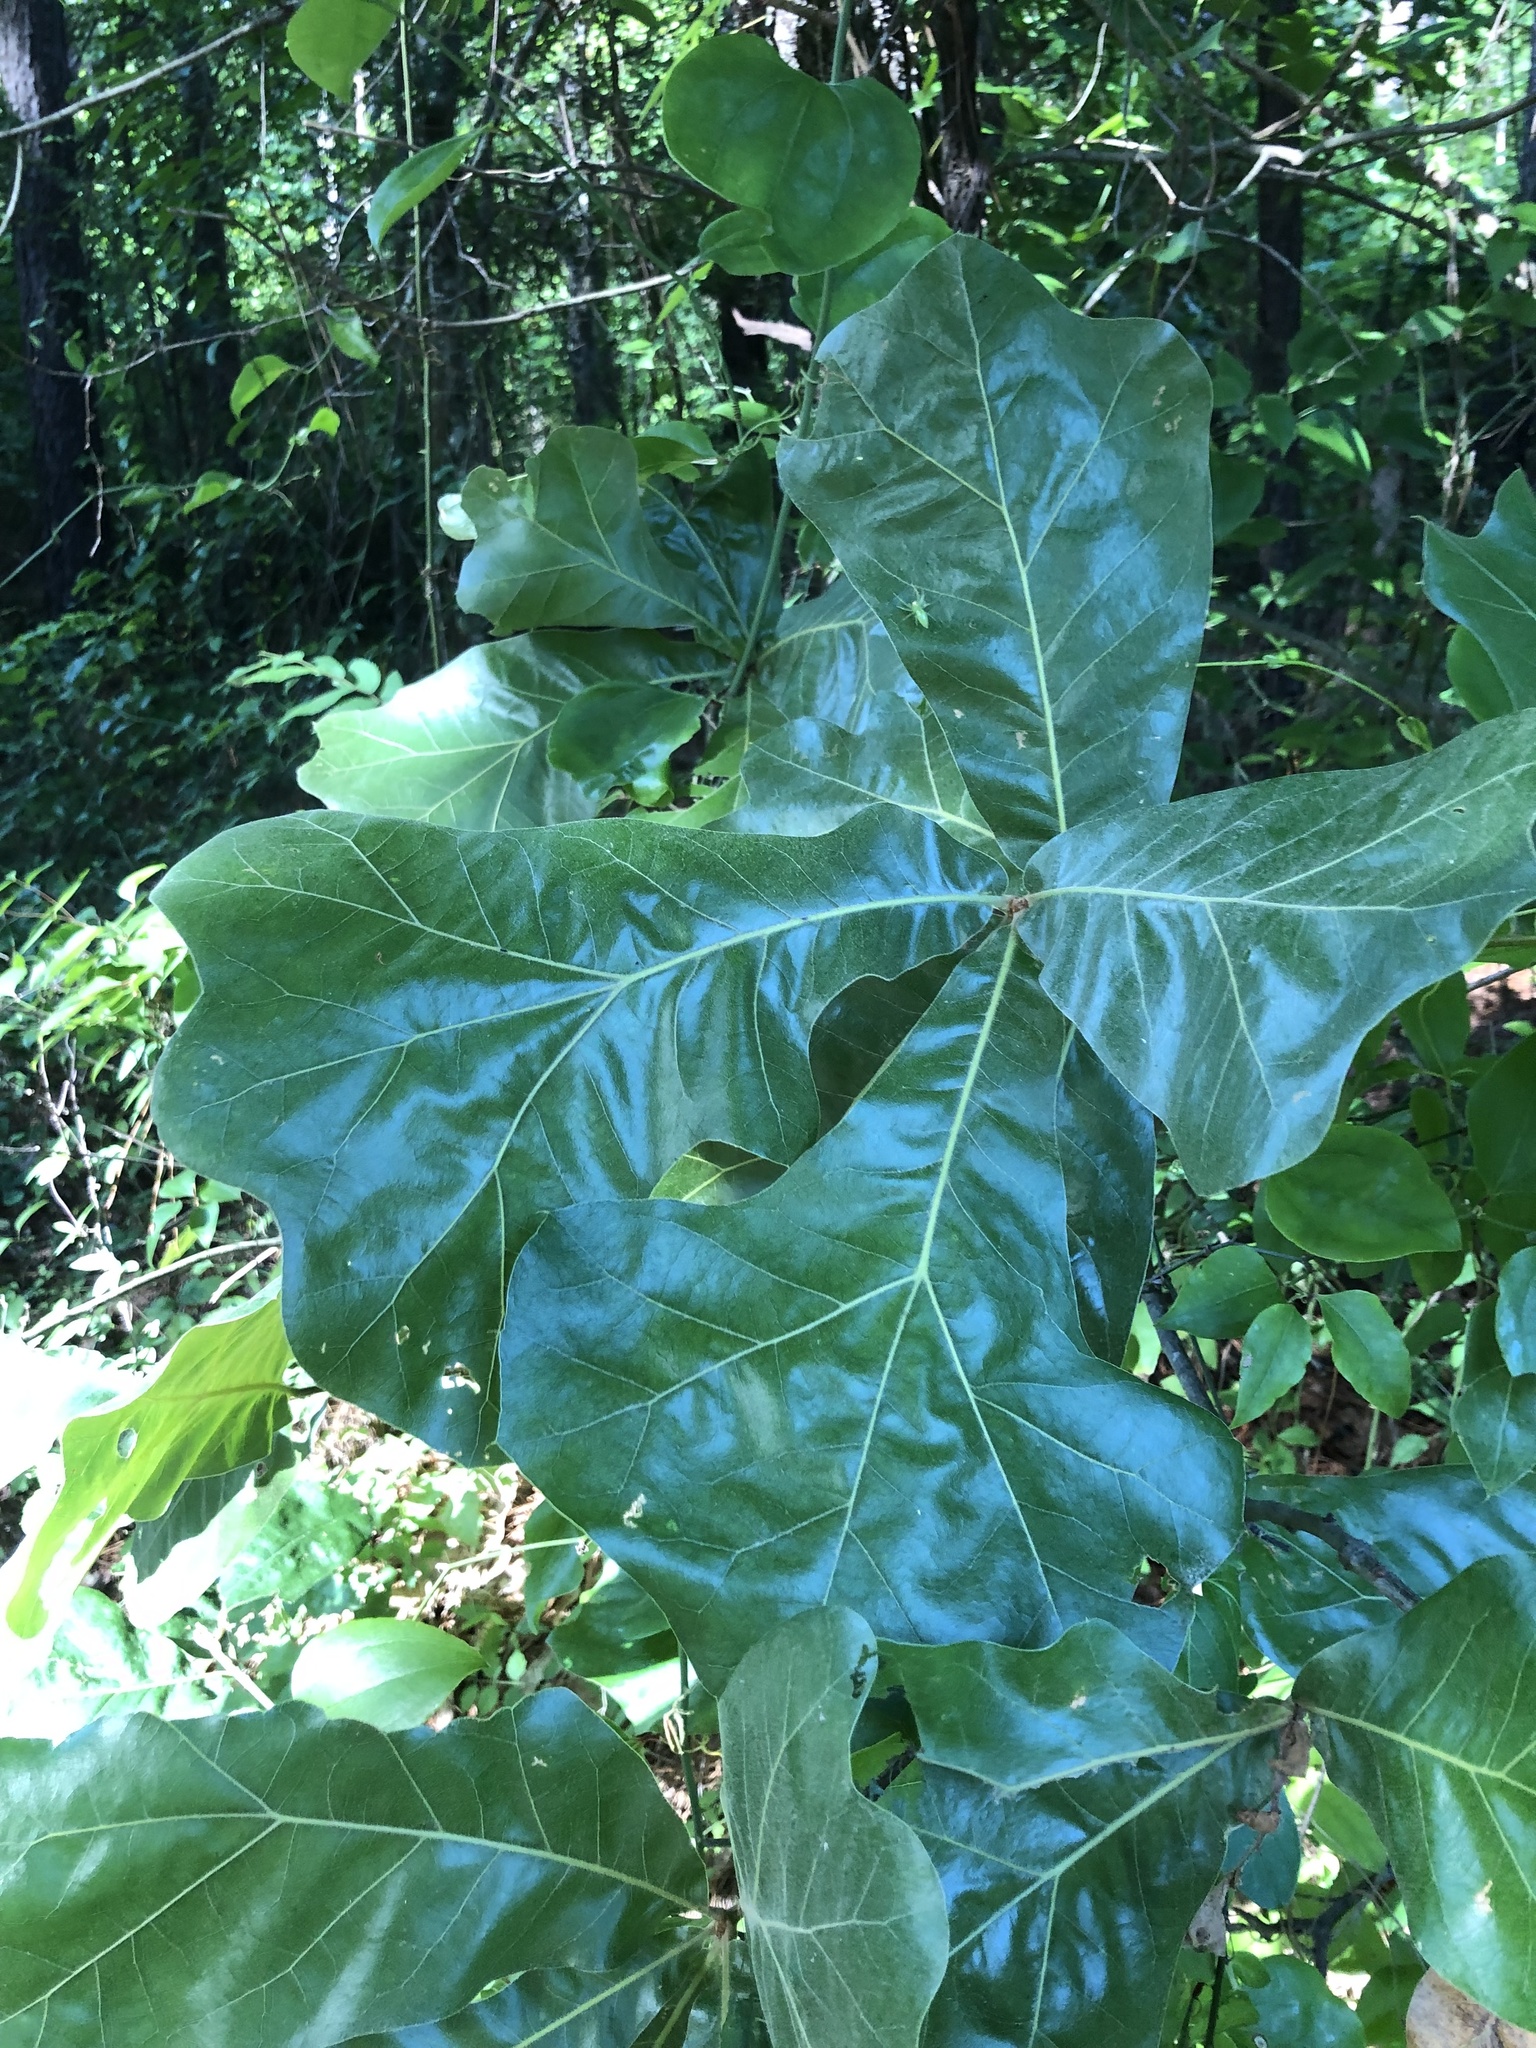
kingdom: Plantae
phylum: Tracheophyta
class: Magnoliopsida
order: Fagales
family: Fagaceae
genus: Quercus
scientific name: Quercus marilandica
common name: Blackjack oak
